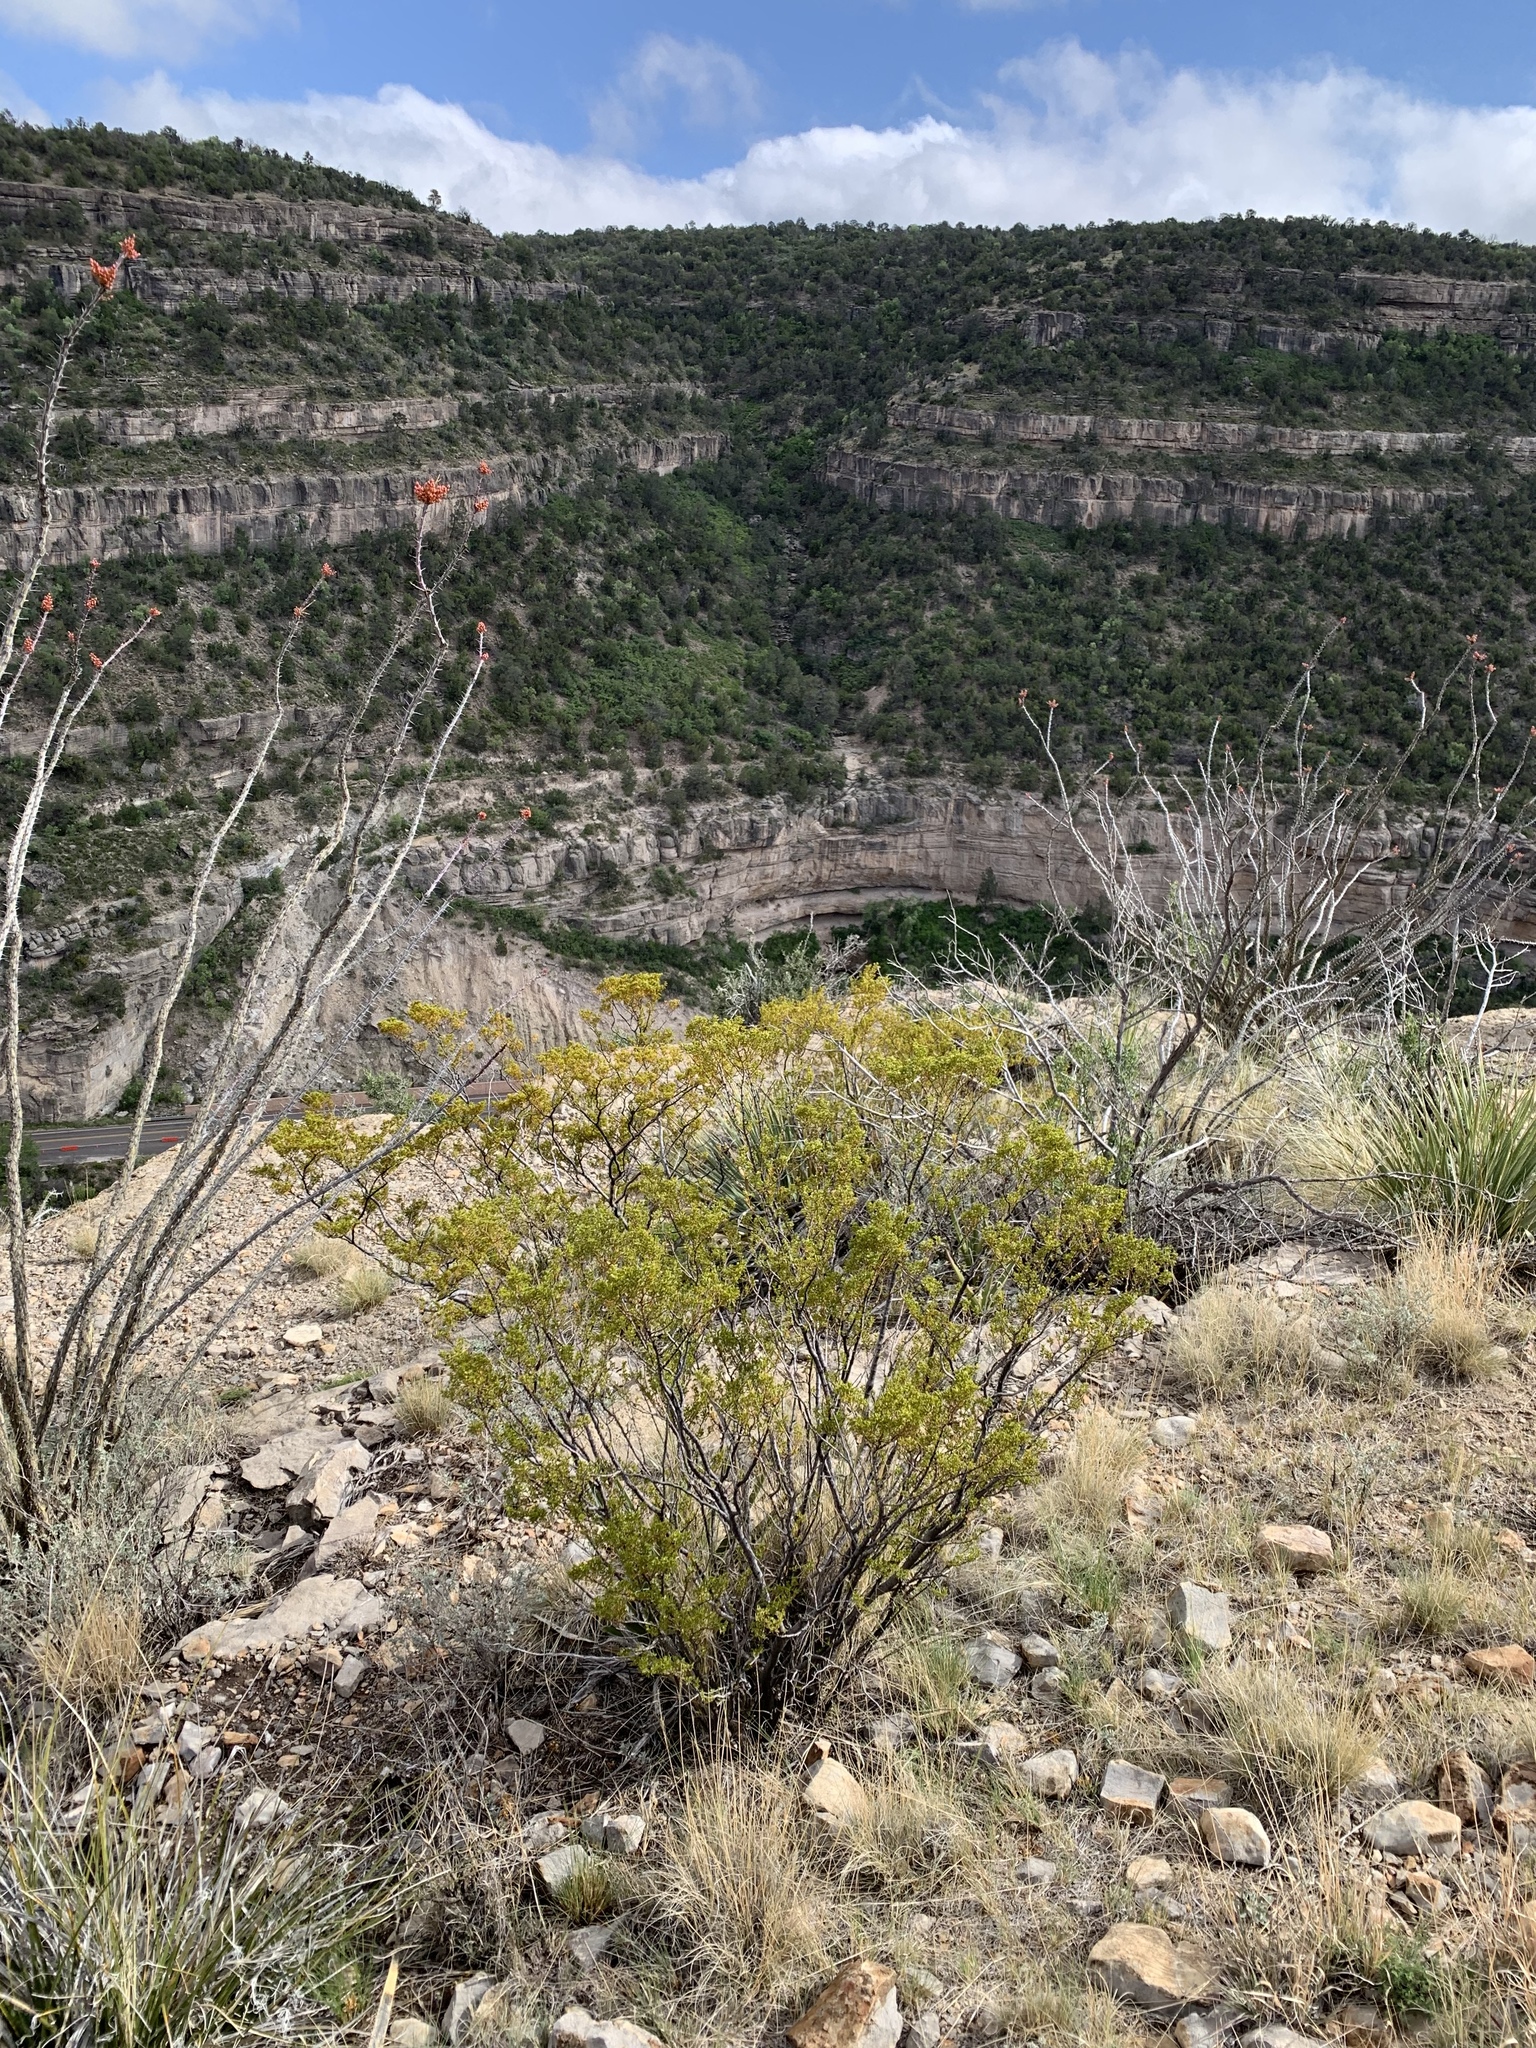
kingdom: Plantae
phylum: Tracheophyta
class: Magnoliopsida
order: Zygophyllales
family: Zygophyllaceae
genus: Larrea
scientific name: Larrea tridentata
